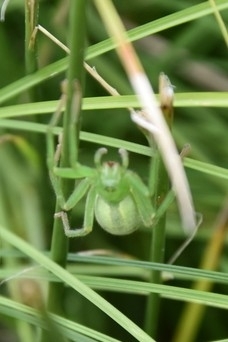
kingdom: Animalia
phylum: Arthropoda
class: Arachnida
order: Araneae
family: Sparassidae
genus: Micrommata
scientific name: Micrommata virescens
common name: Green spider
